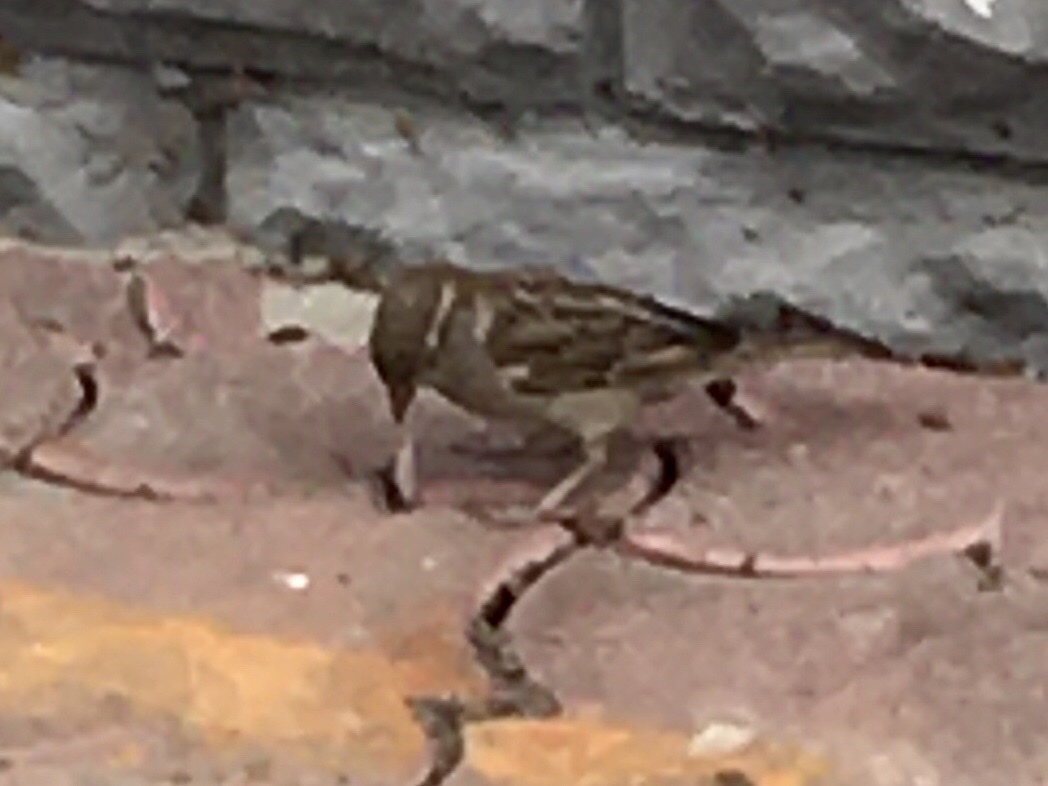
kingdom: Animalia
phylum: Chordata
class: Aves
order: Passeriformes
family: Passeridae
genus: Passer
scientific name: Passer domesticus
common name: House sparrow
